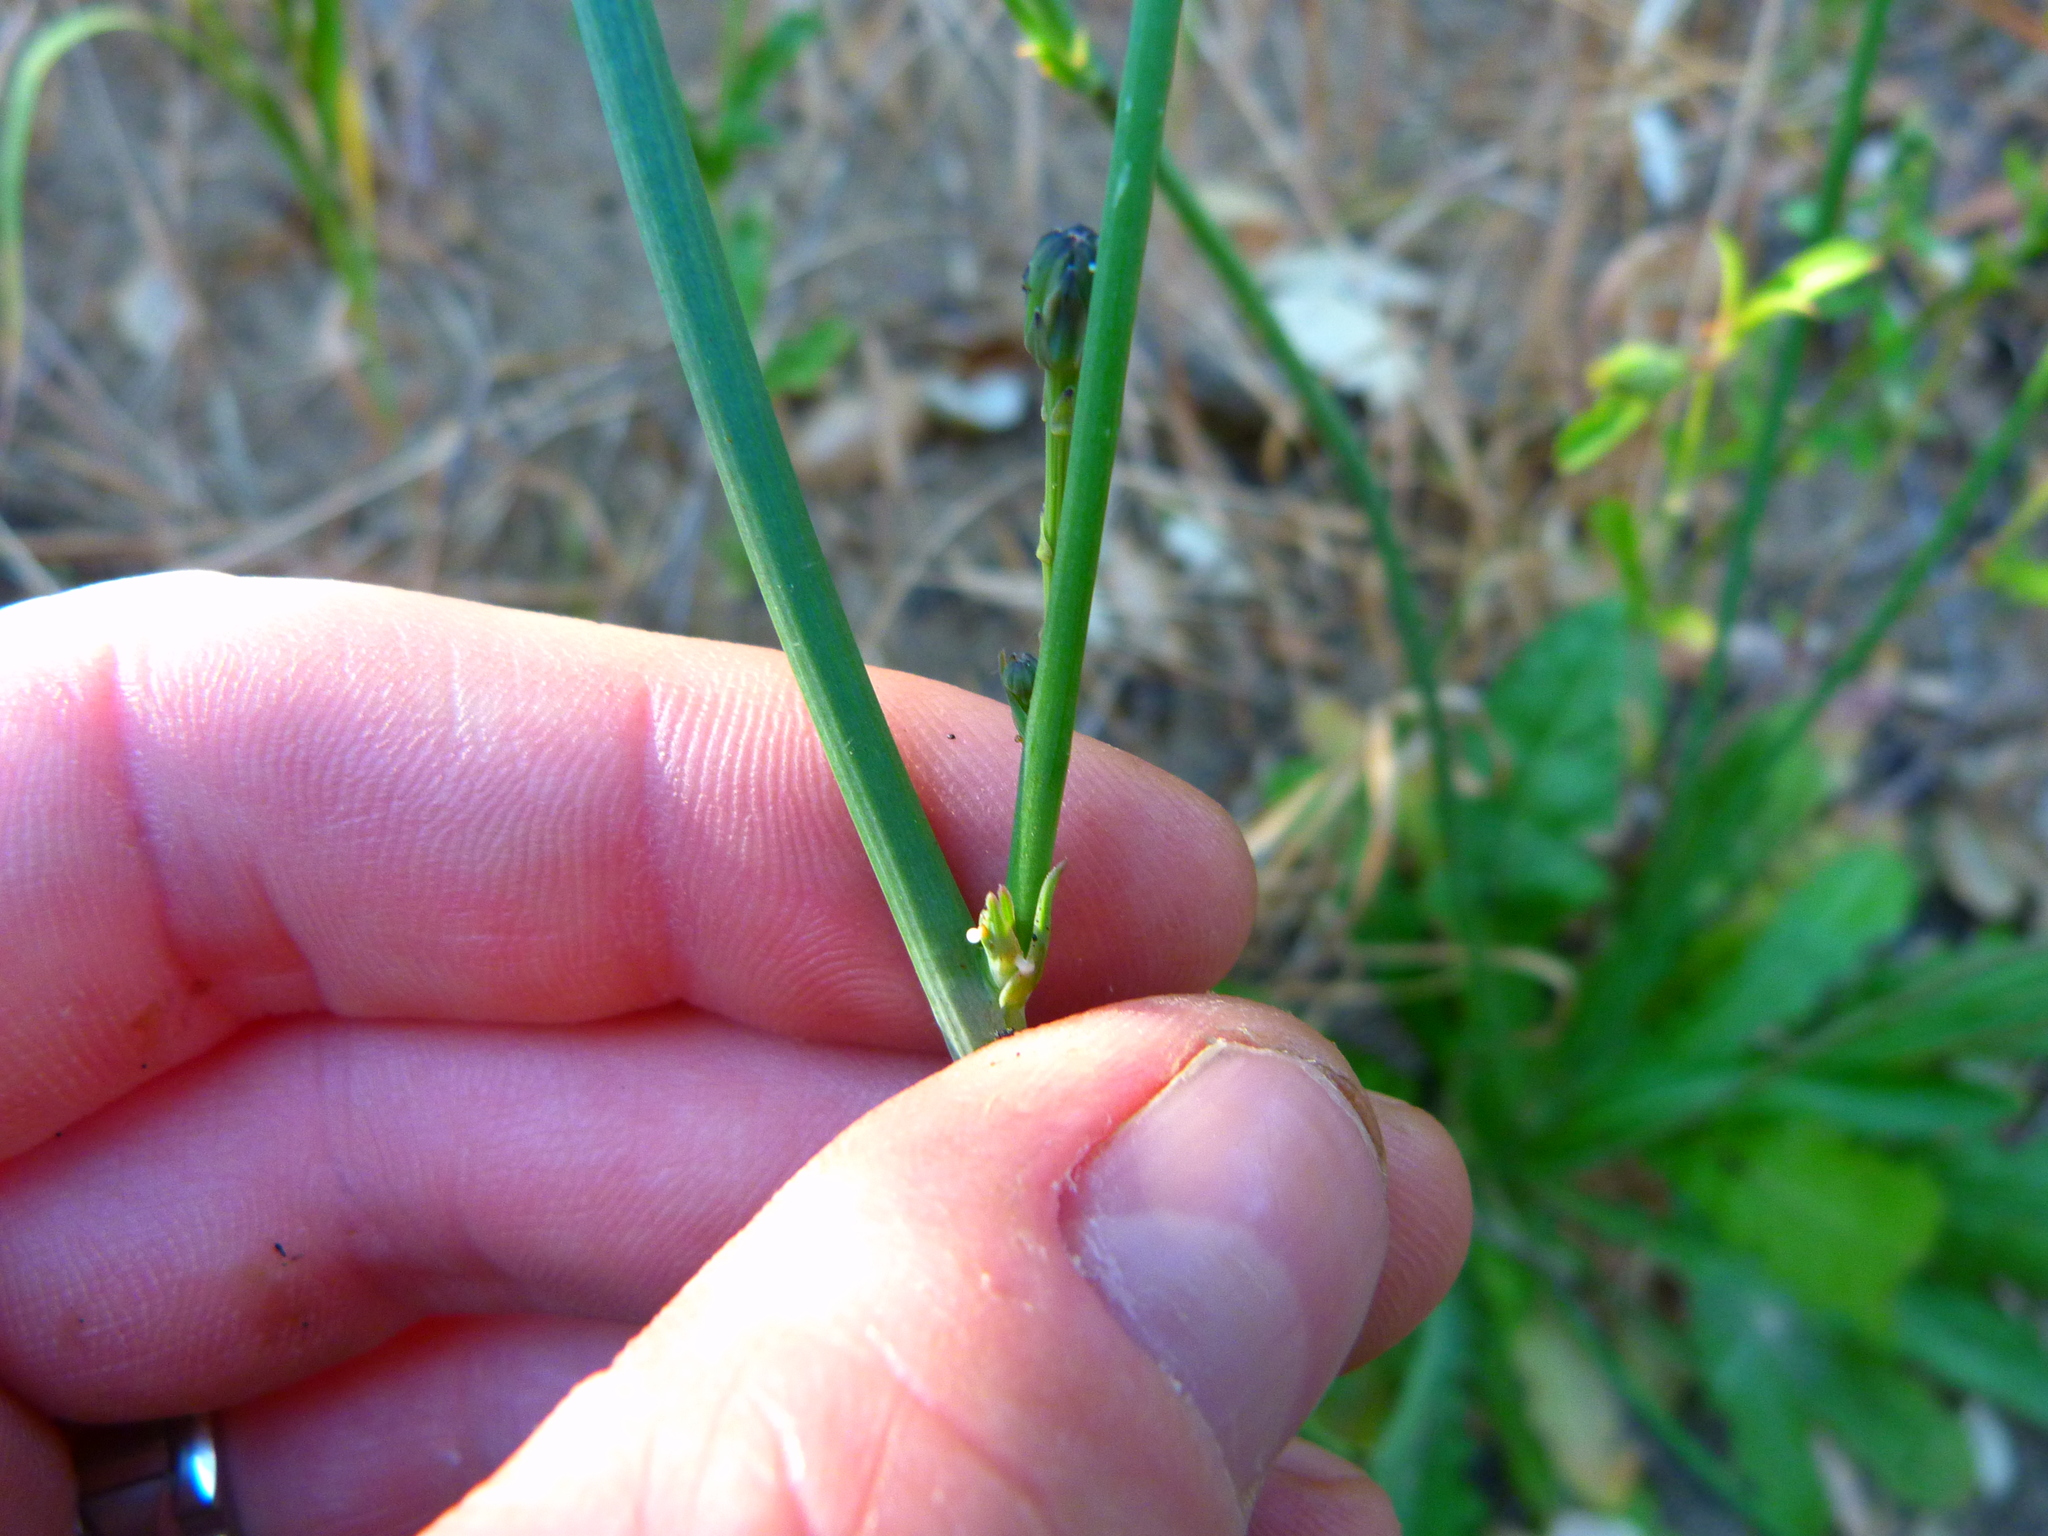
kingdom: Plantae
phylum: Tracheophyta
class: Magnoliopsida
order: Asterales
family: Asteraceae
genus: Hypochaeris
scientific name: Hypochaeris radicata
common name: Flatweed
